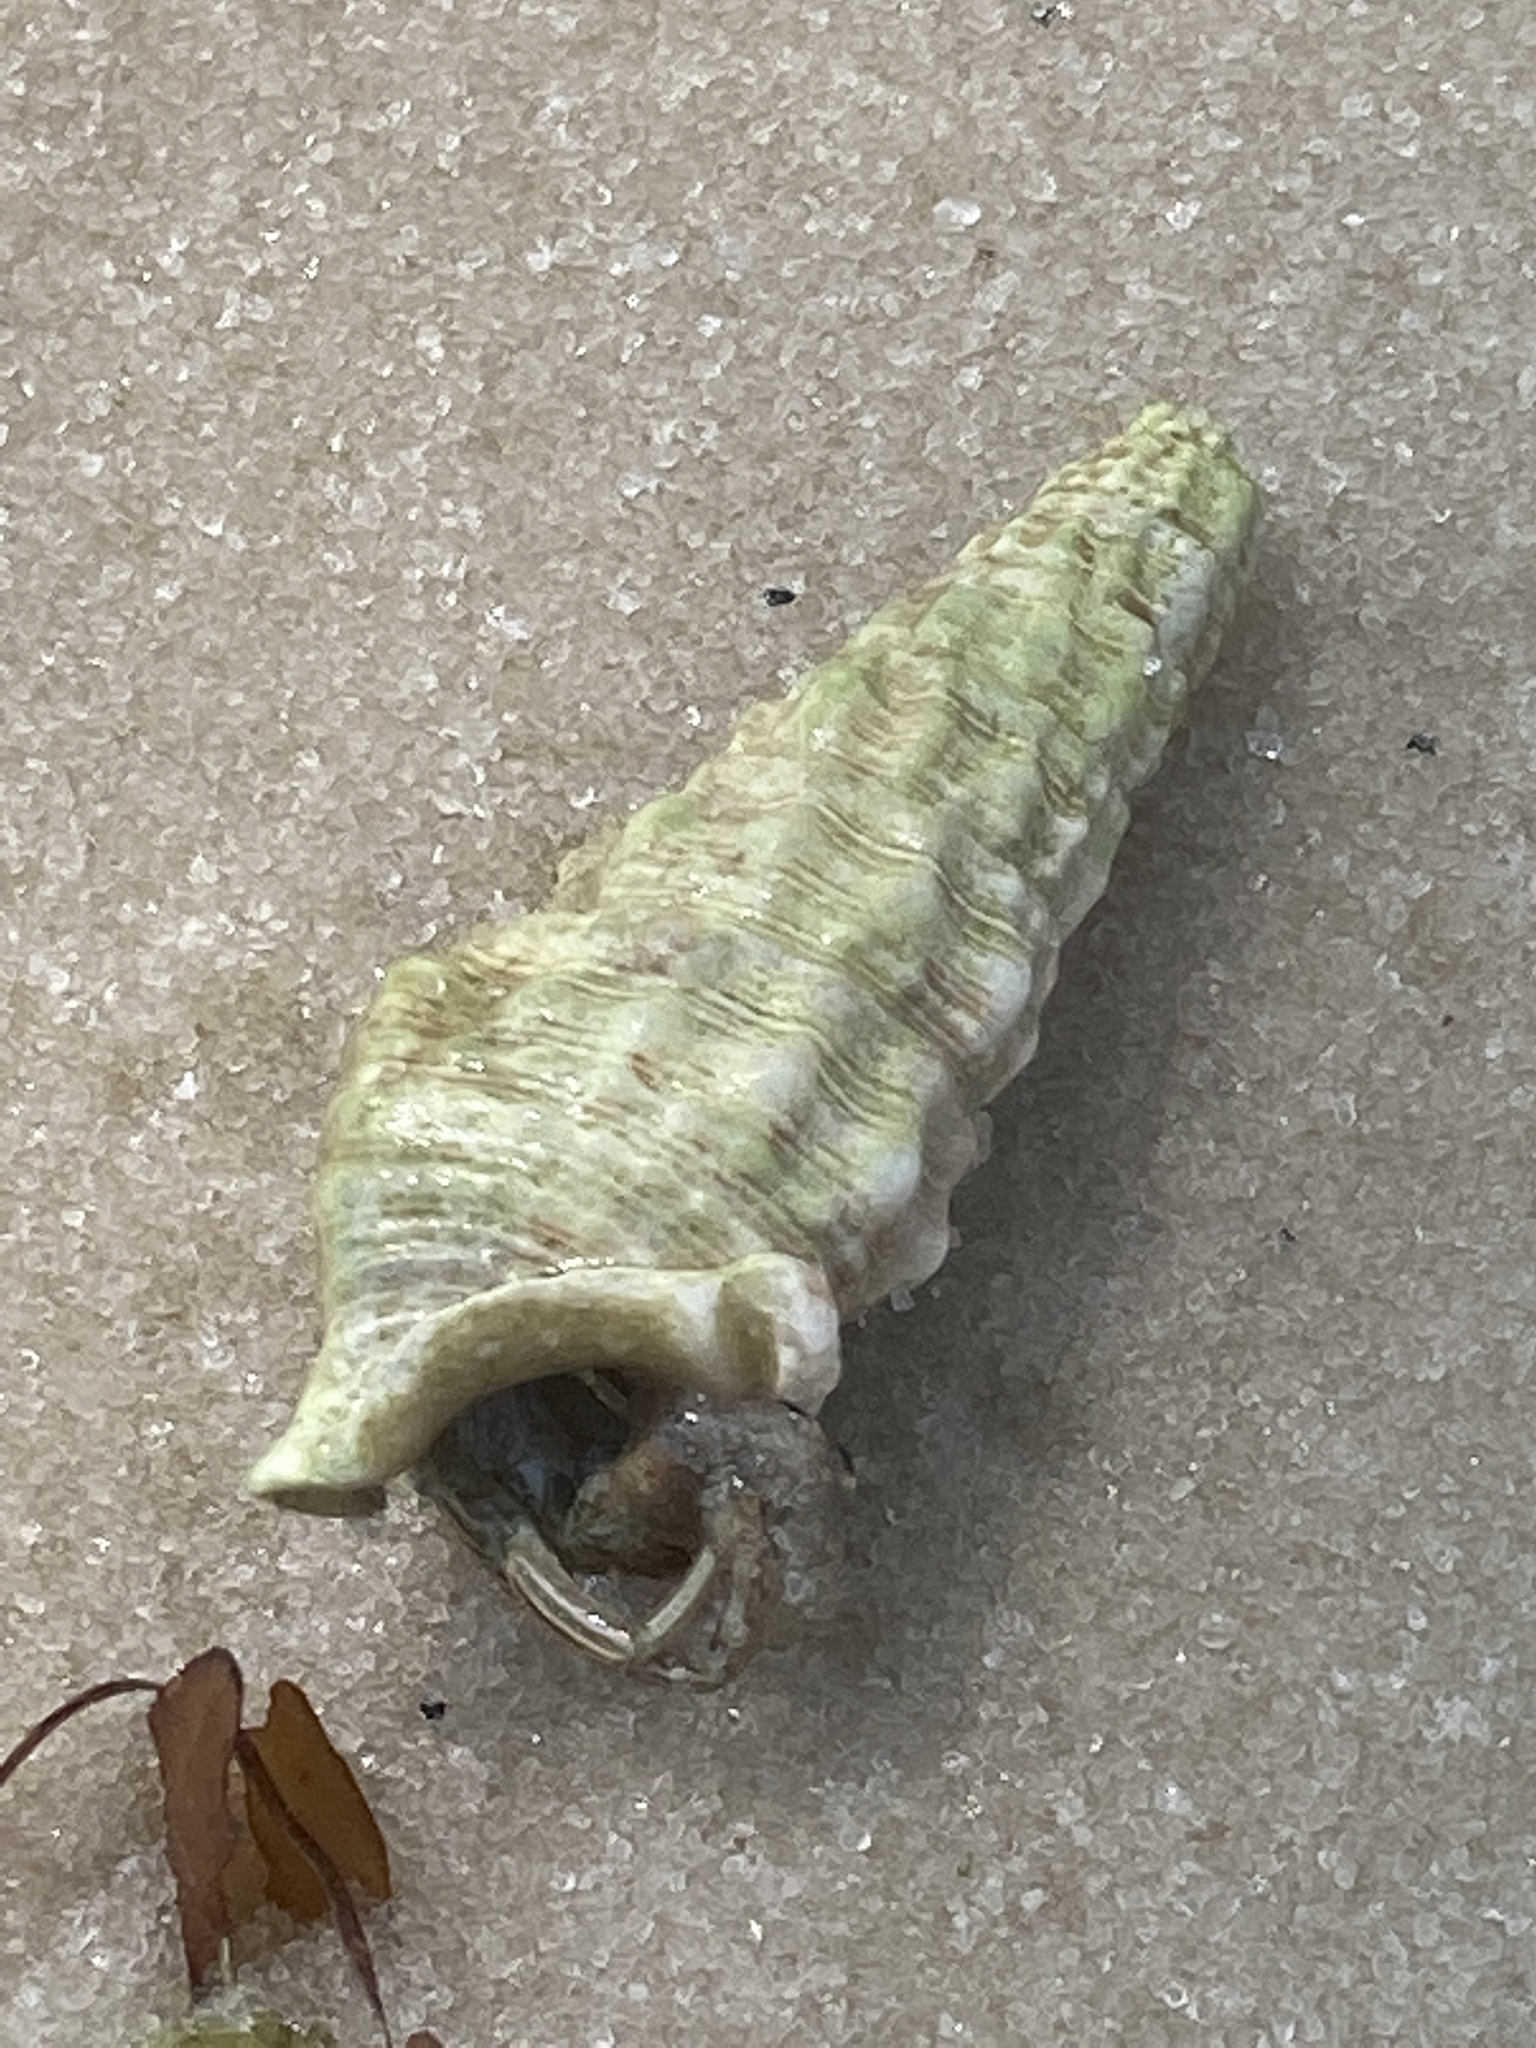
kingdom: Animalia
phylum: Mollusca
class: Gastropoda
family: Cerithiidae
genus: Cerithium
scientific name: Cerithium atratum
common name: Dark cerith
